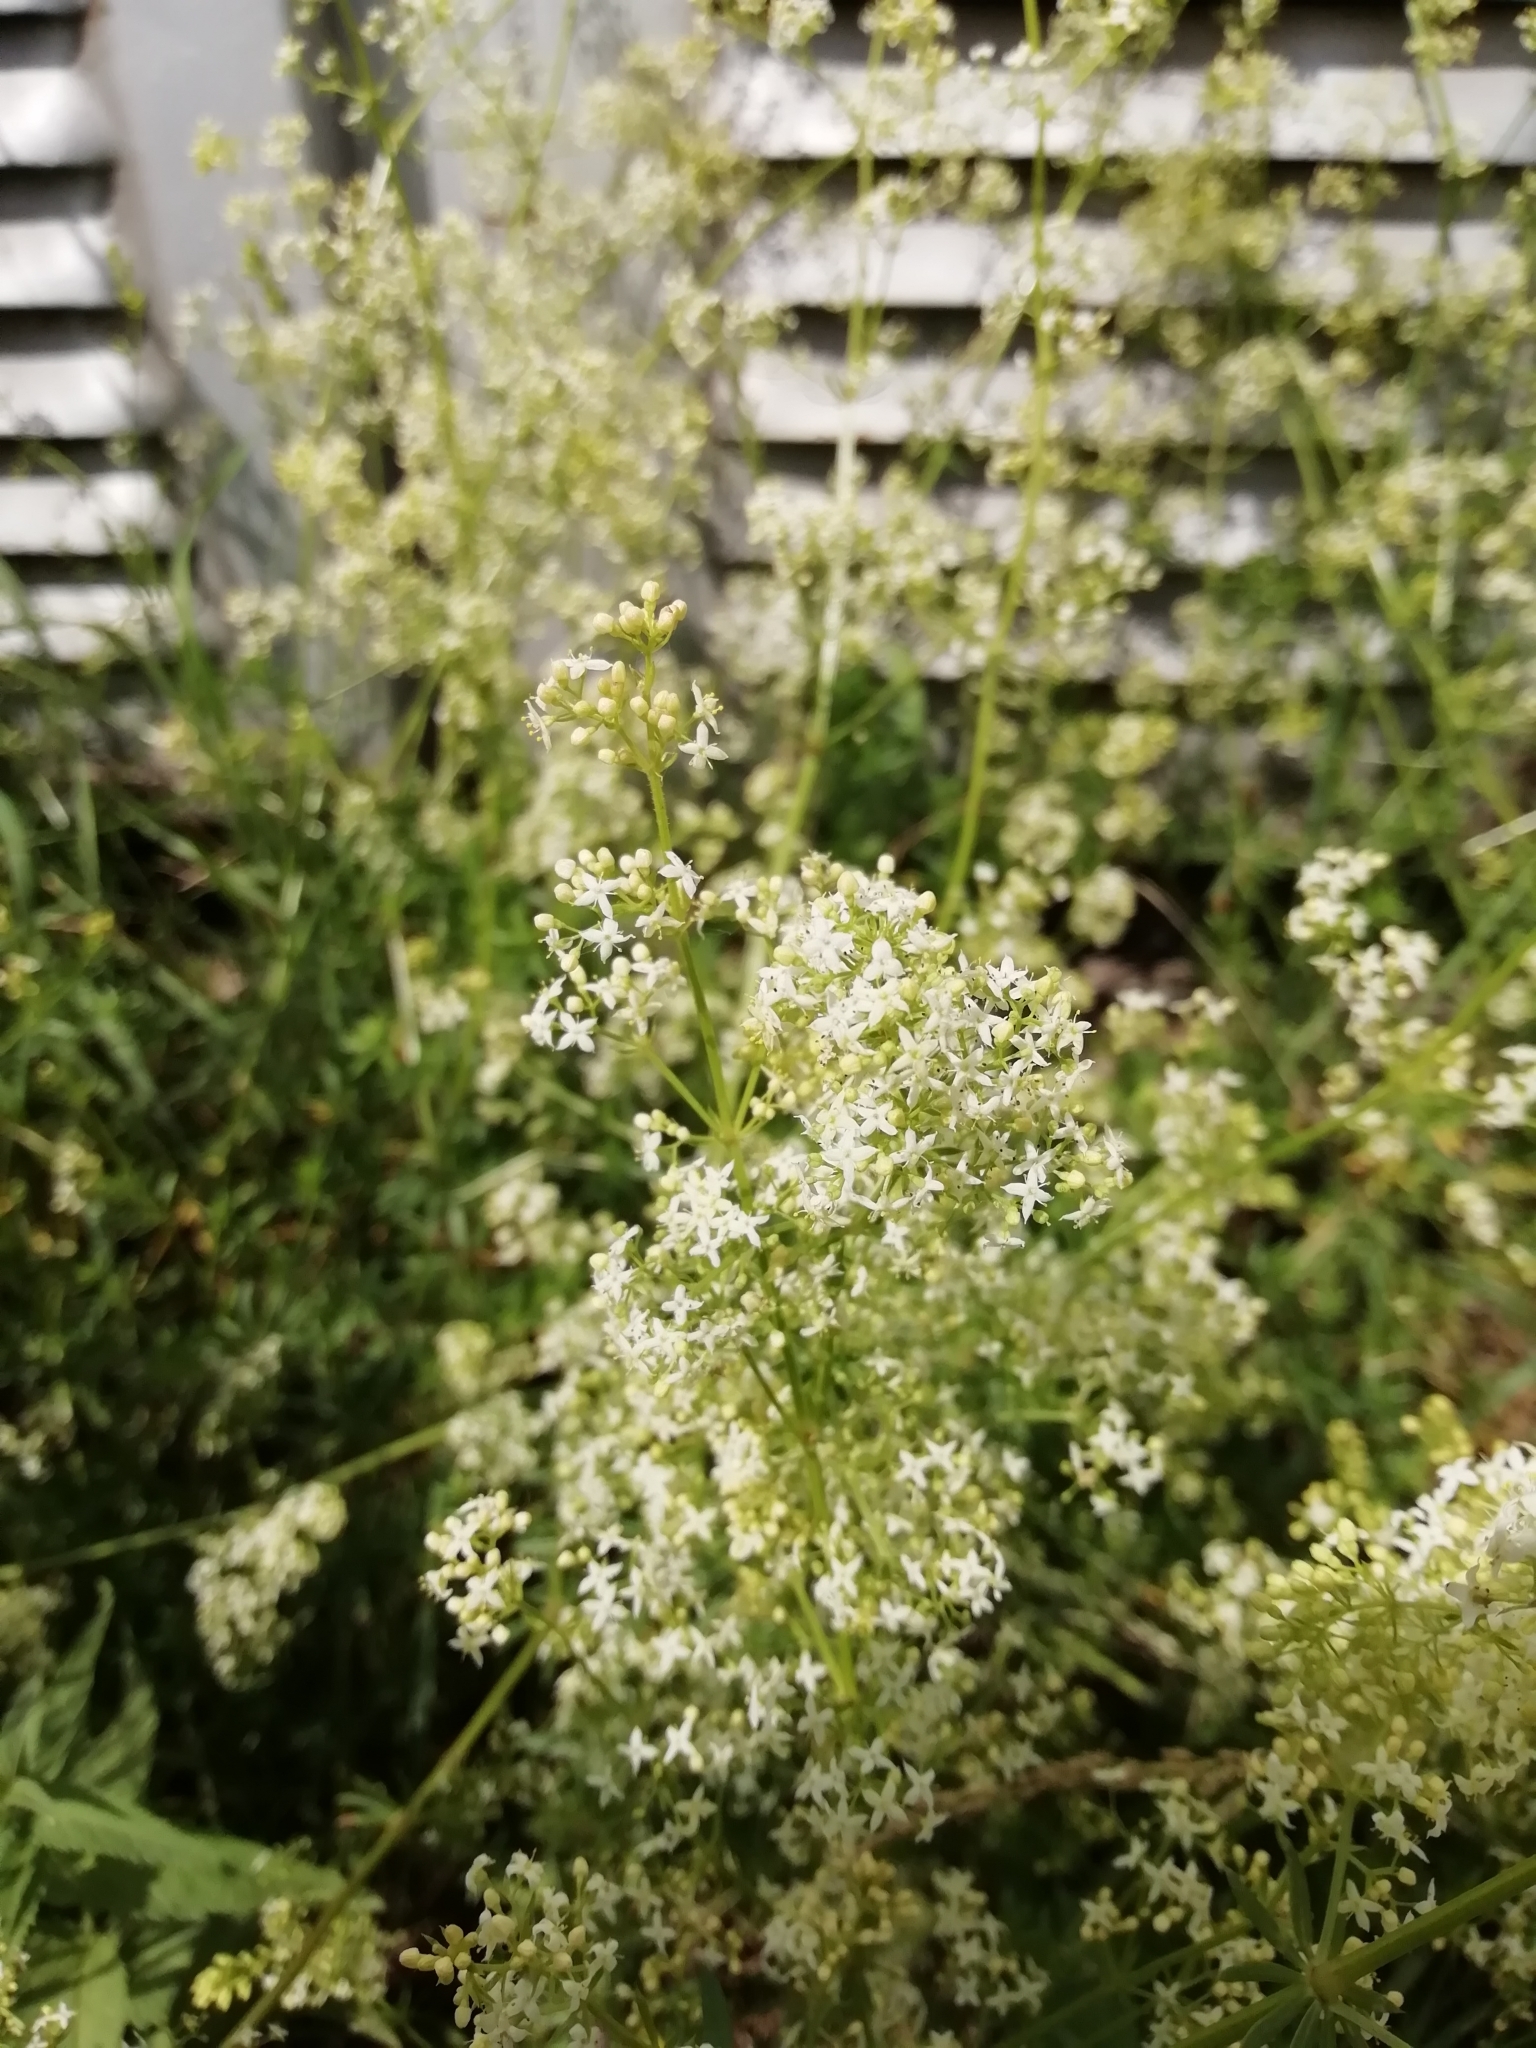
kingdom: Plantae
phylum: Tracheophyta
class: Magnoliopsida
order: Gentianales
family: Rubiaceae
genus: Galium
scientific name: Galium mollugo
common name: Hedge bedstraw
